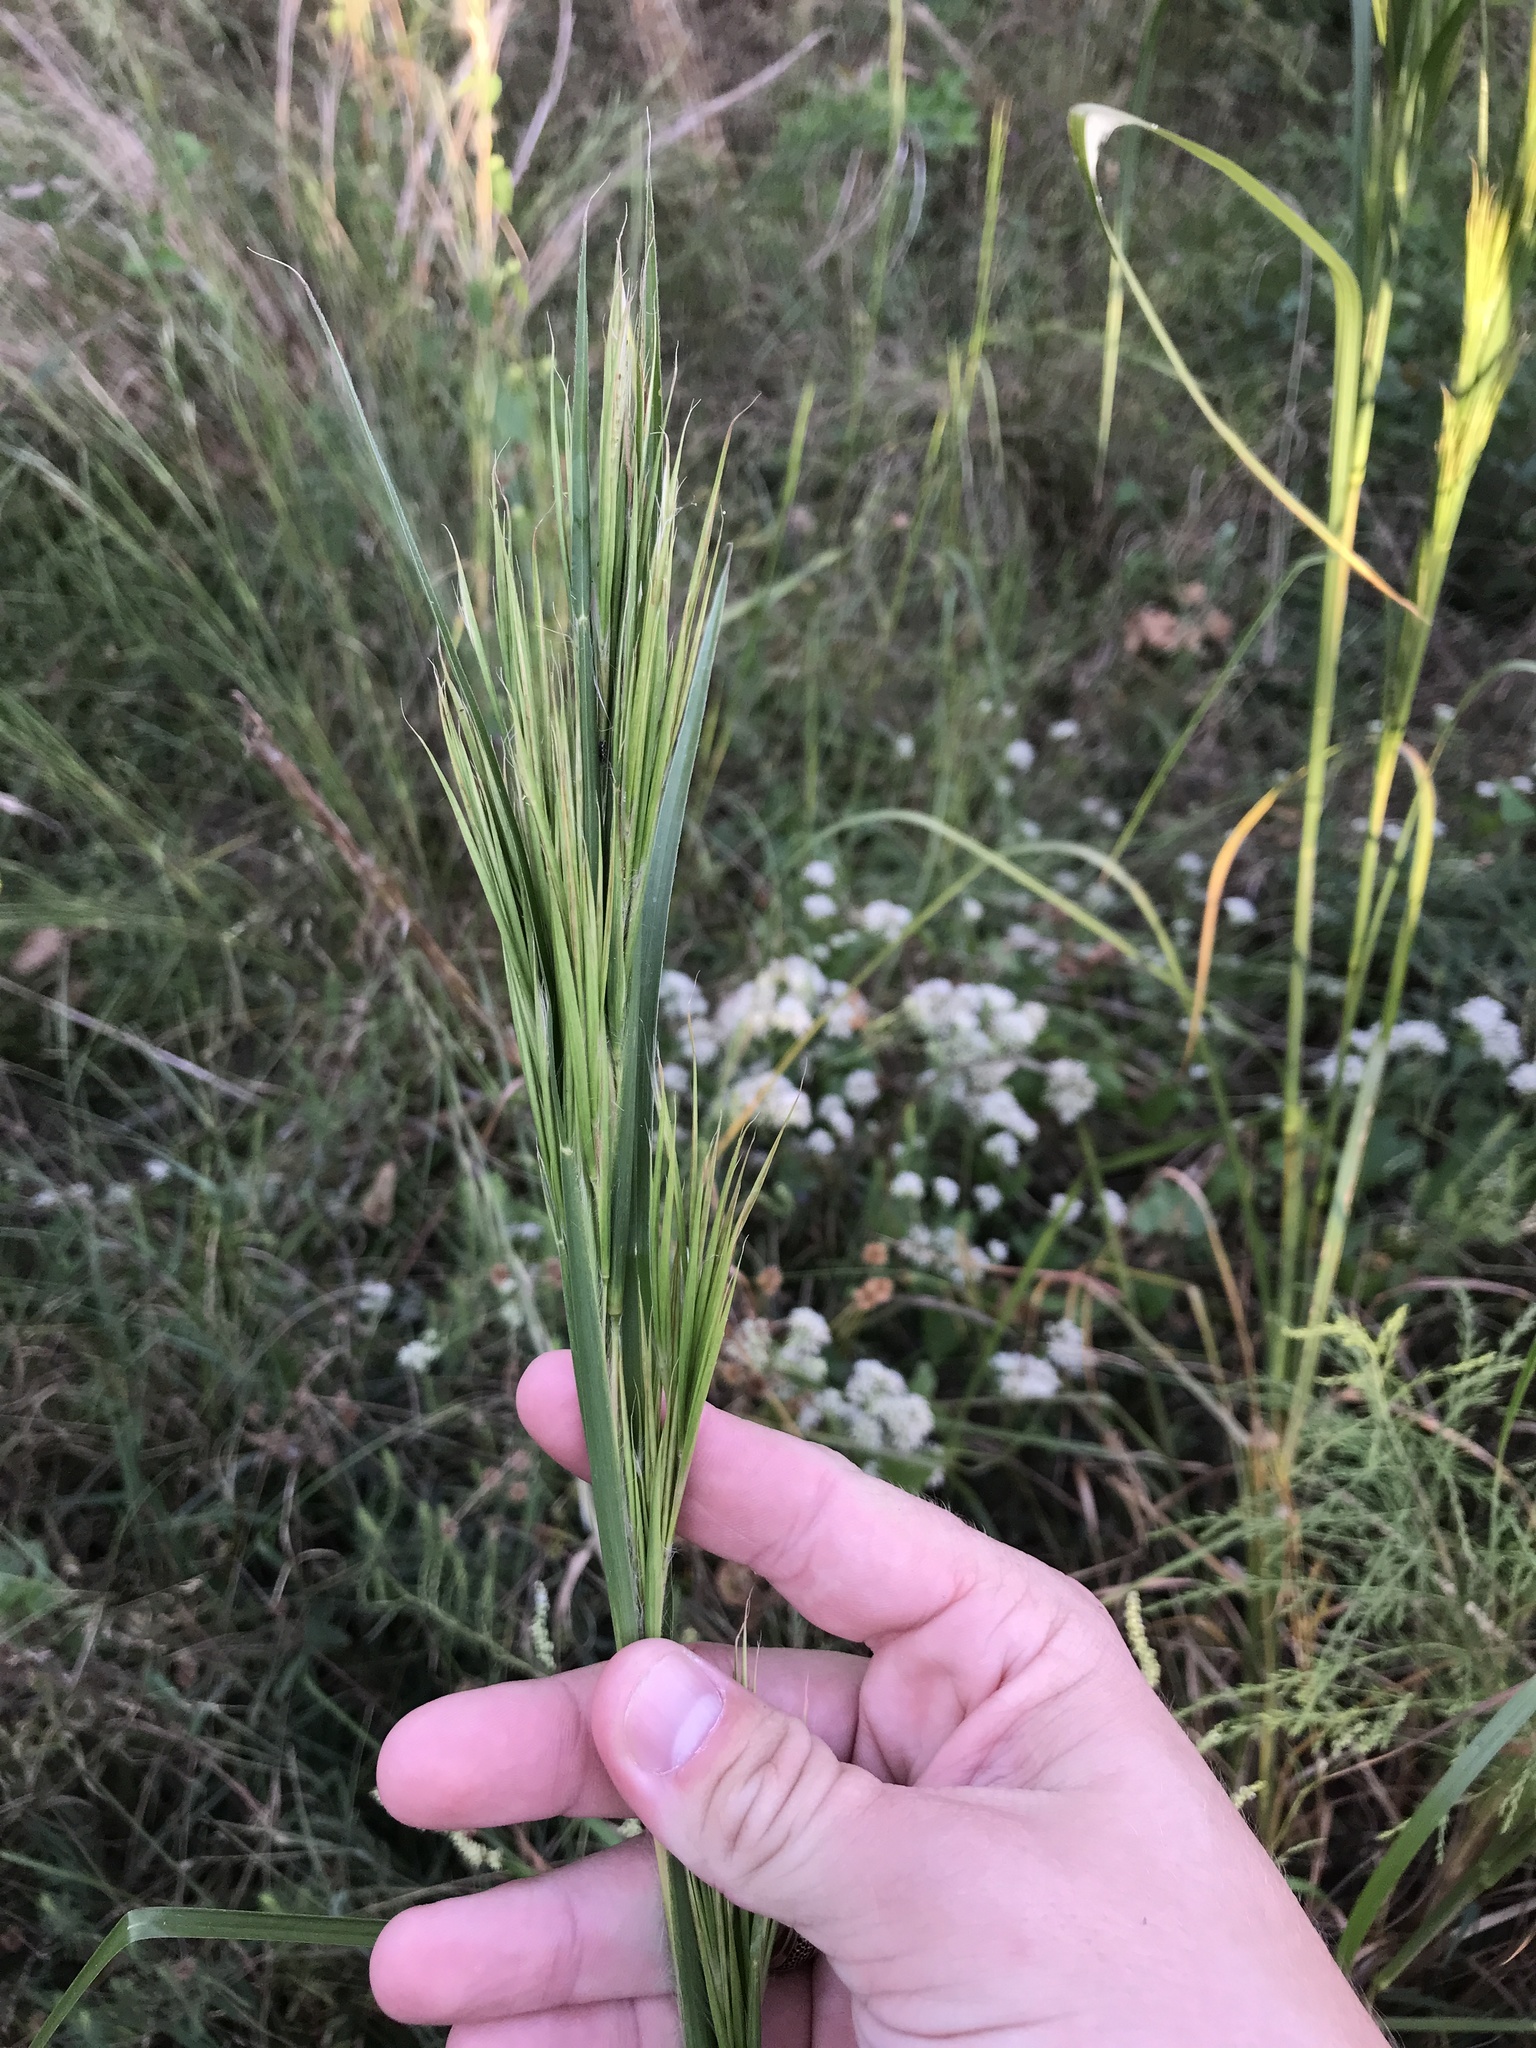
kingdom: Plantae
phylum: Tracheophyta
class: Liliopsida
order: Poales
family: Poaceae
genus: Andropogon
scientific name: Andropogon tenuispatheus
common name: Bushy bluestem
